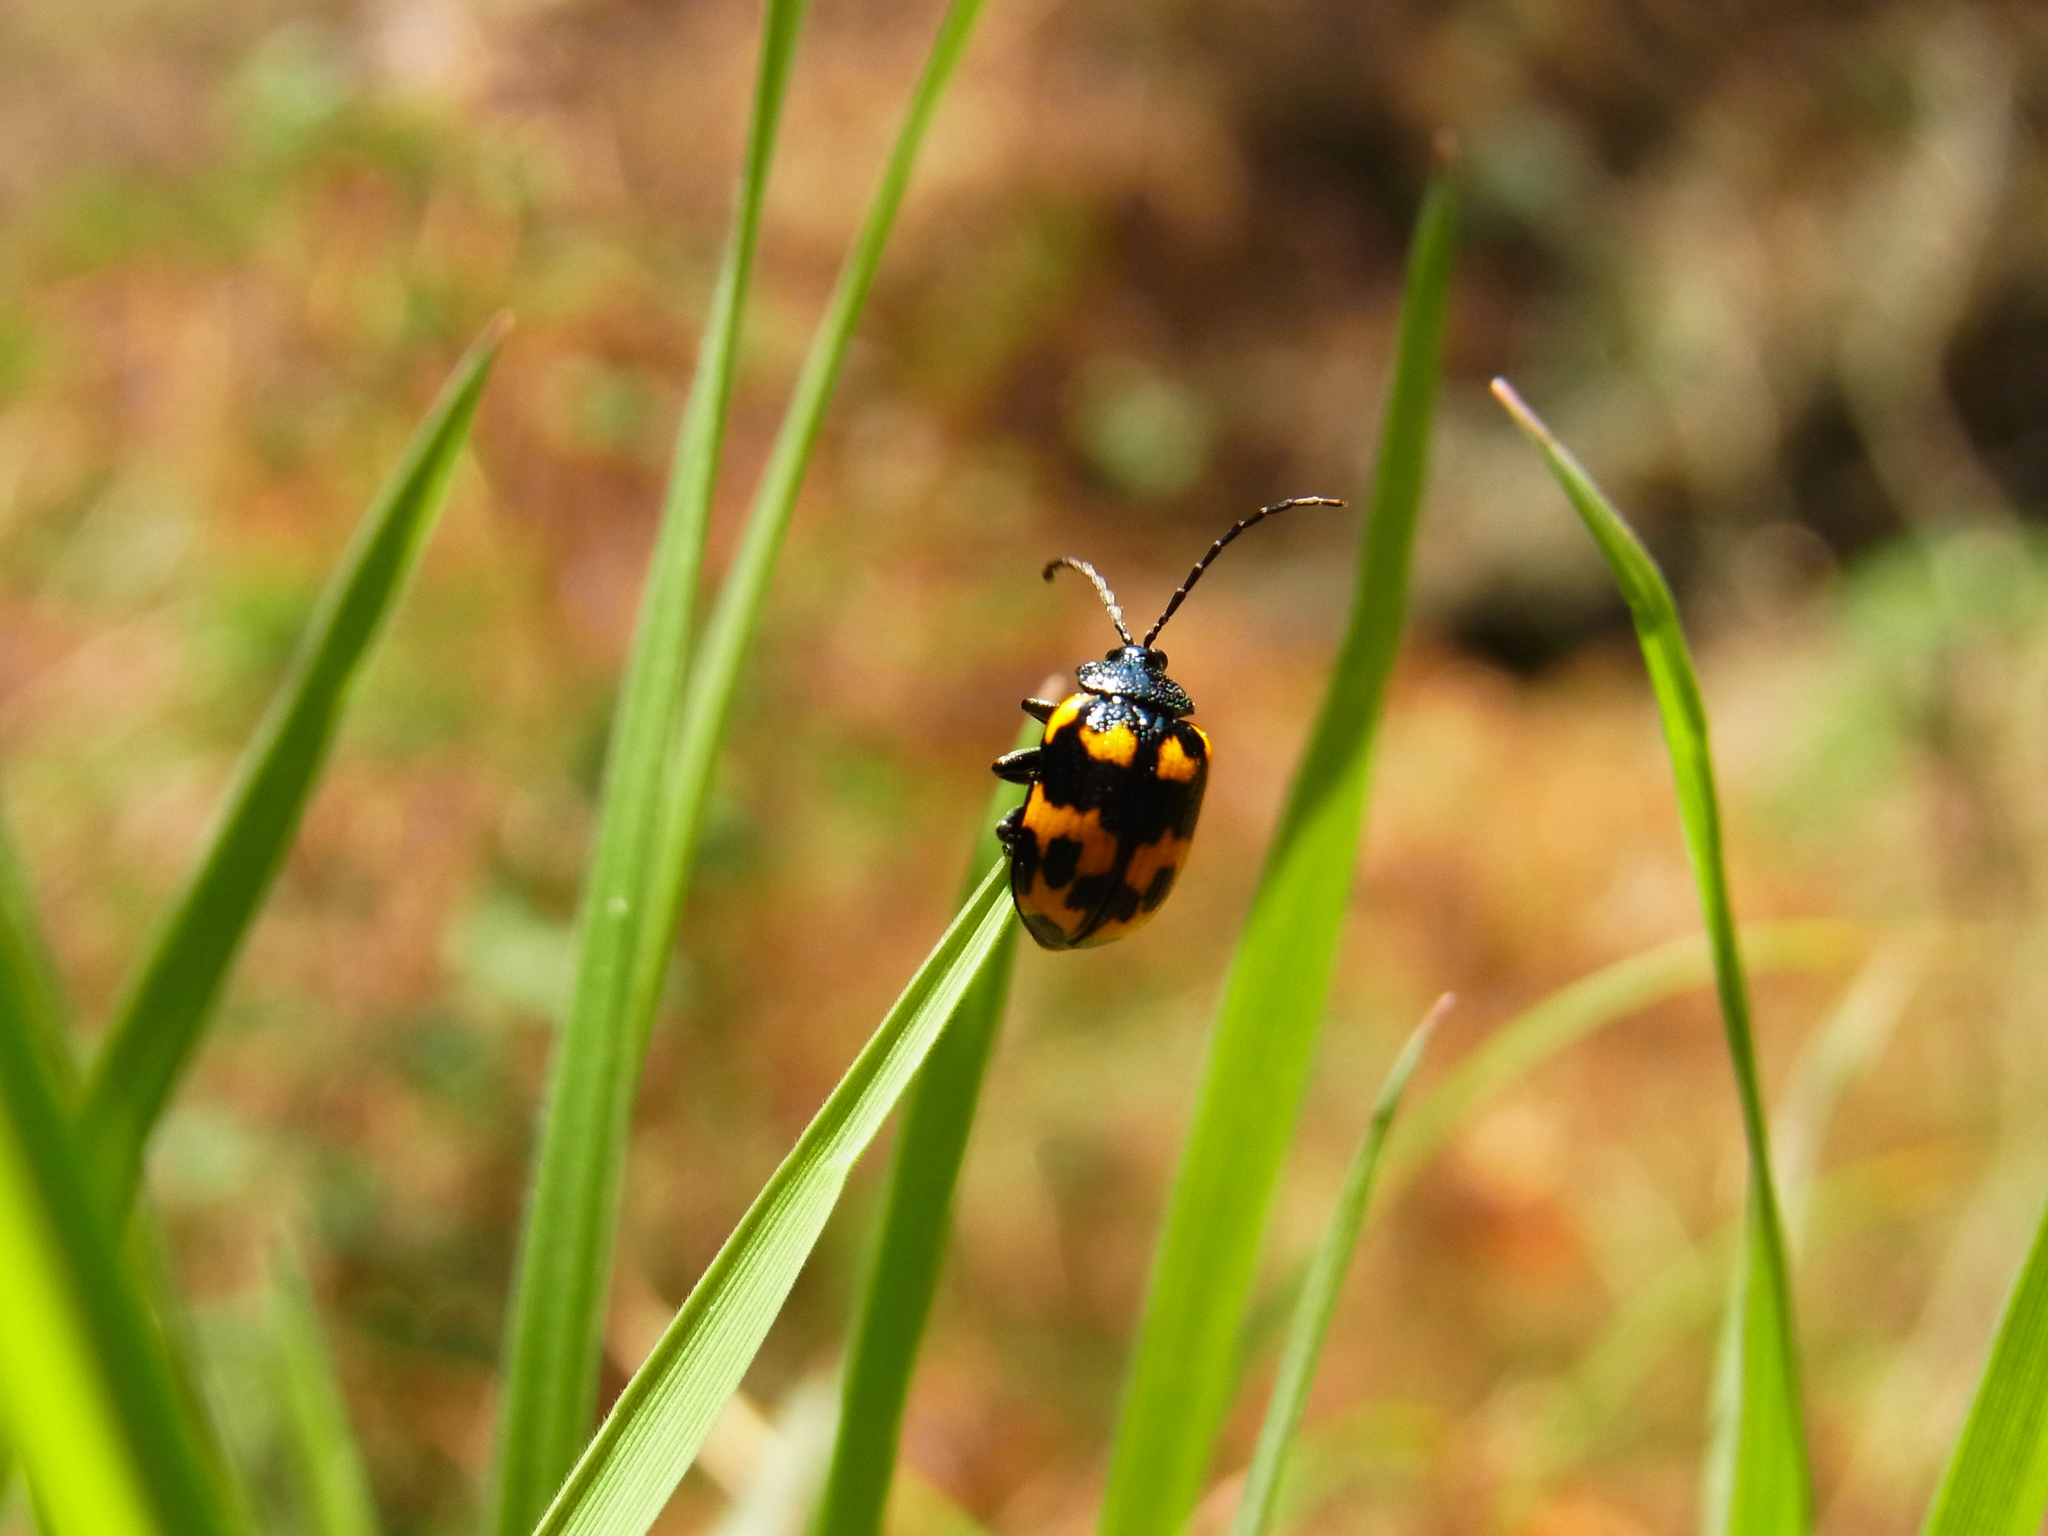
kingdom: Animalia
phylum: Arthropoda
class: Insecta
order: Coleoptera
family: Chrysomelidae
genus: Gallerucida
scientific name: Gallerucida bifasciata
